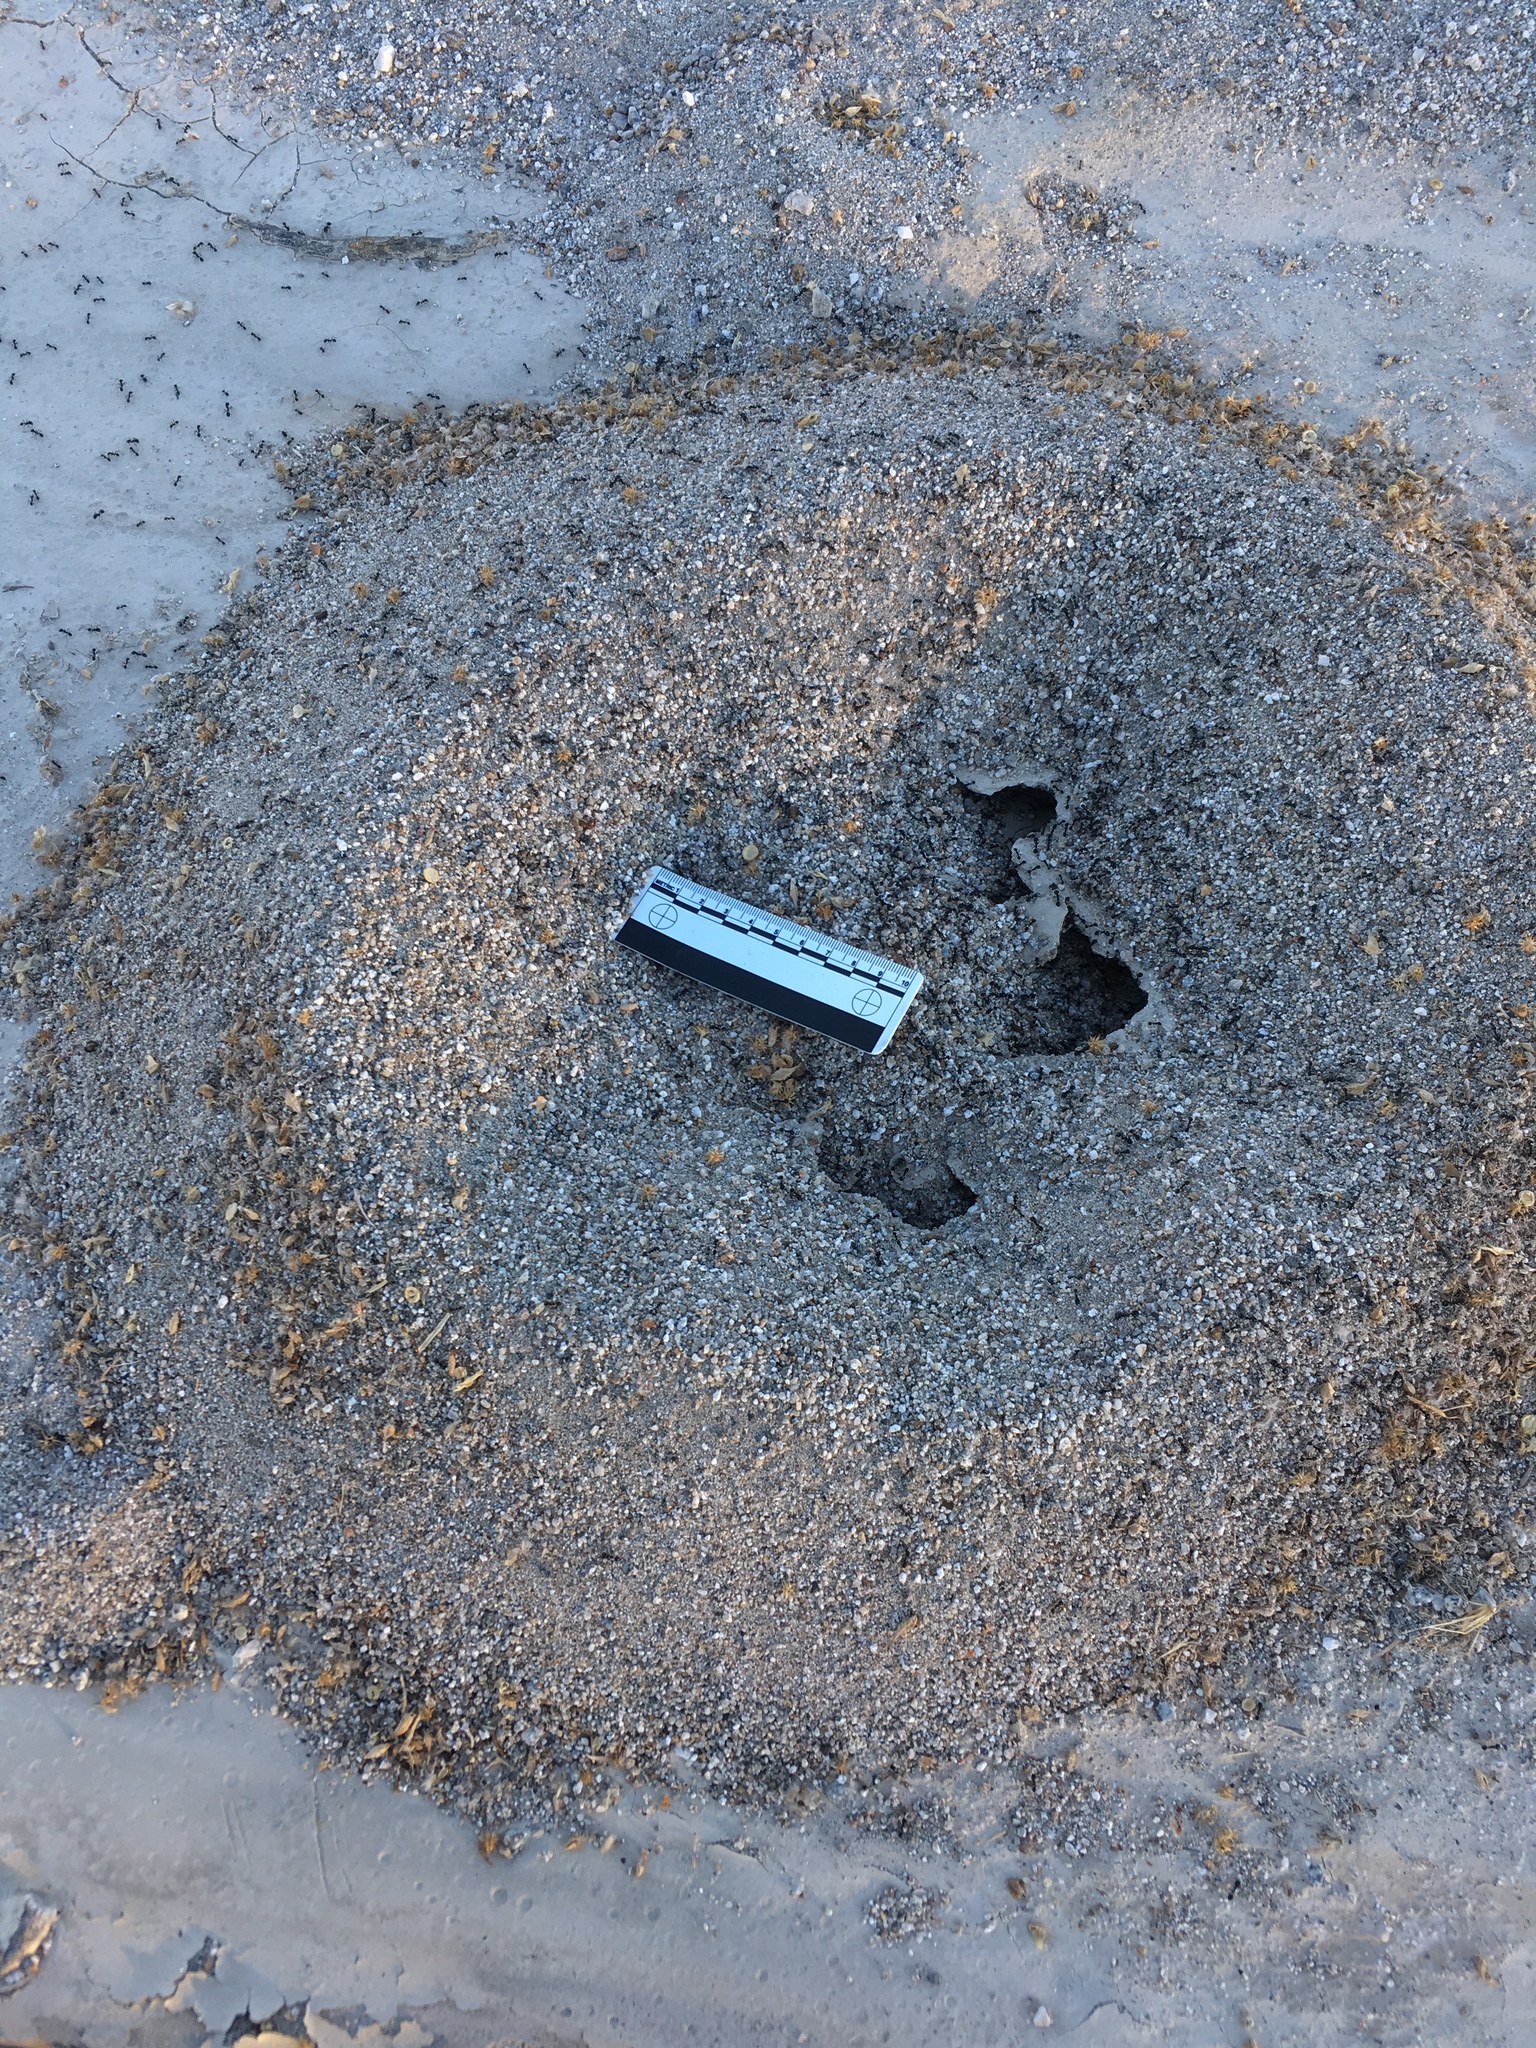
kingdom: Animalia
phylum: Arthropoda
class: Insecta
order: Hymenoptera
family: Formicidae
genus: Messor
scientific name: Messor pergandei
